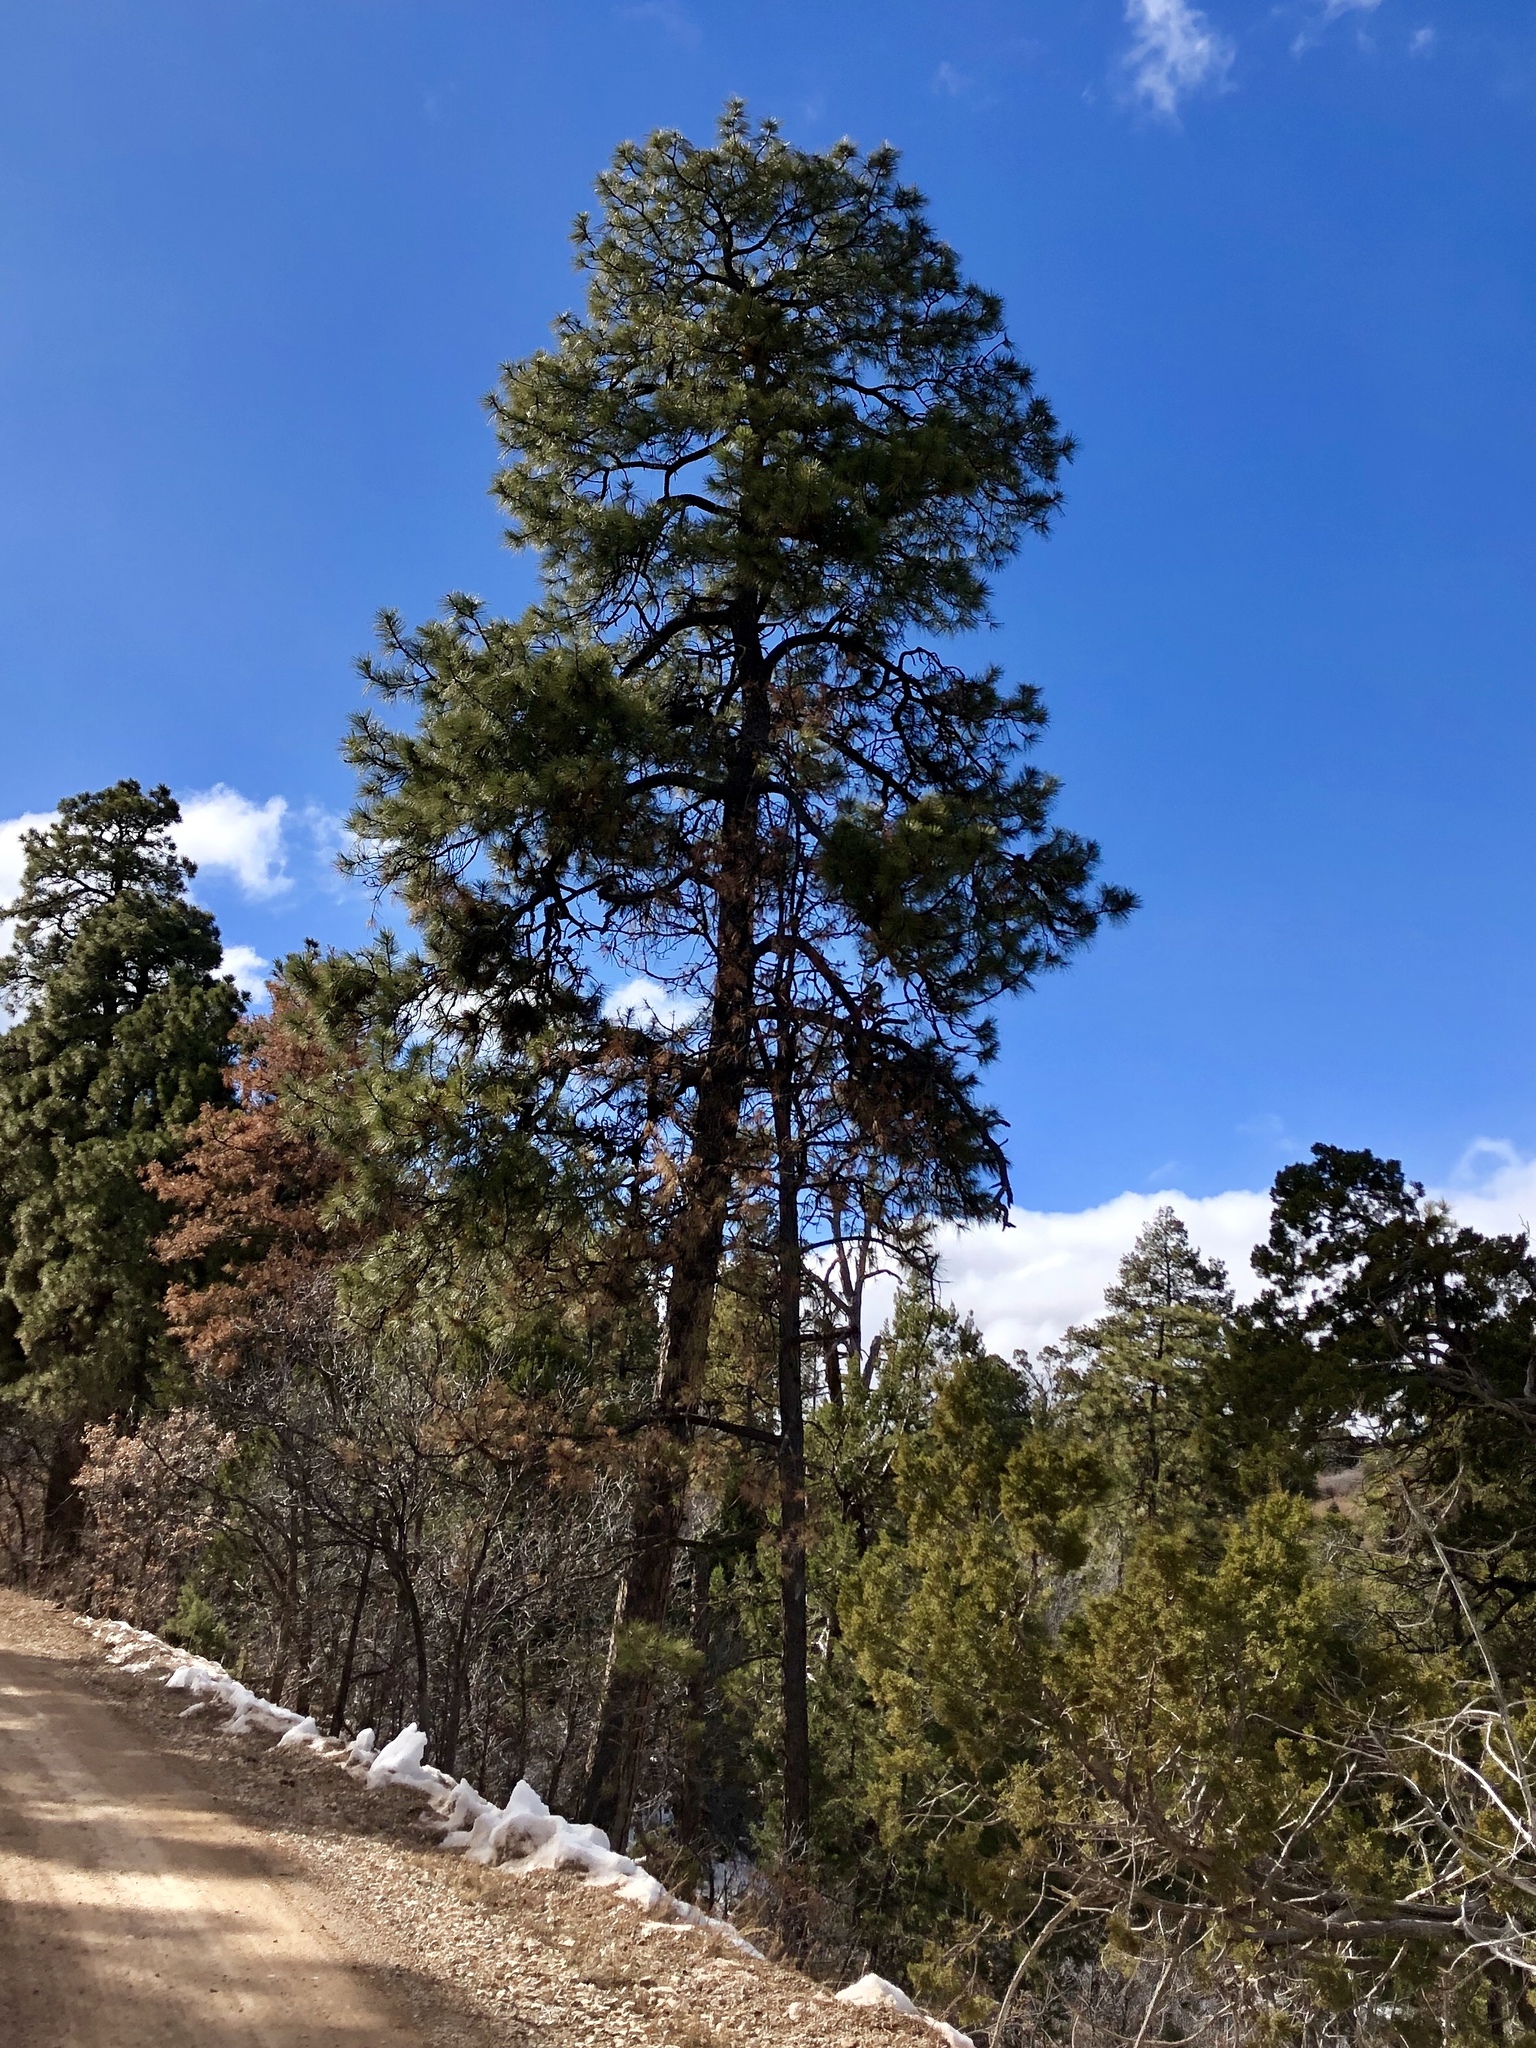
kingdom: Plantae
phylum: Tracheophyta
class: Pinopsida
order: Pinales
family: Pinaceae
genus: Pinus
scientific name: Pinus ponderosa
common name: Western yellow-pine
